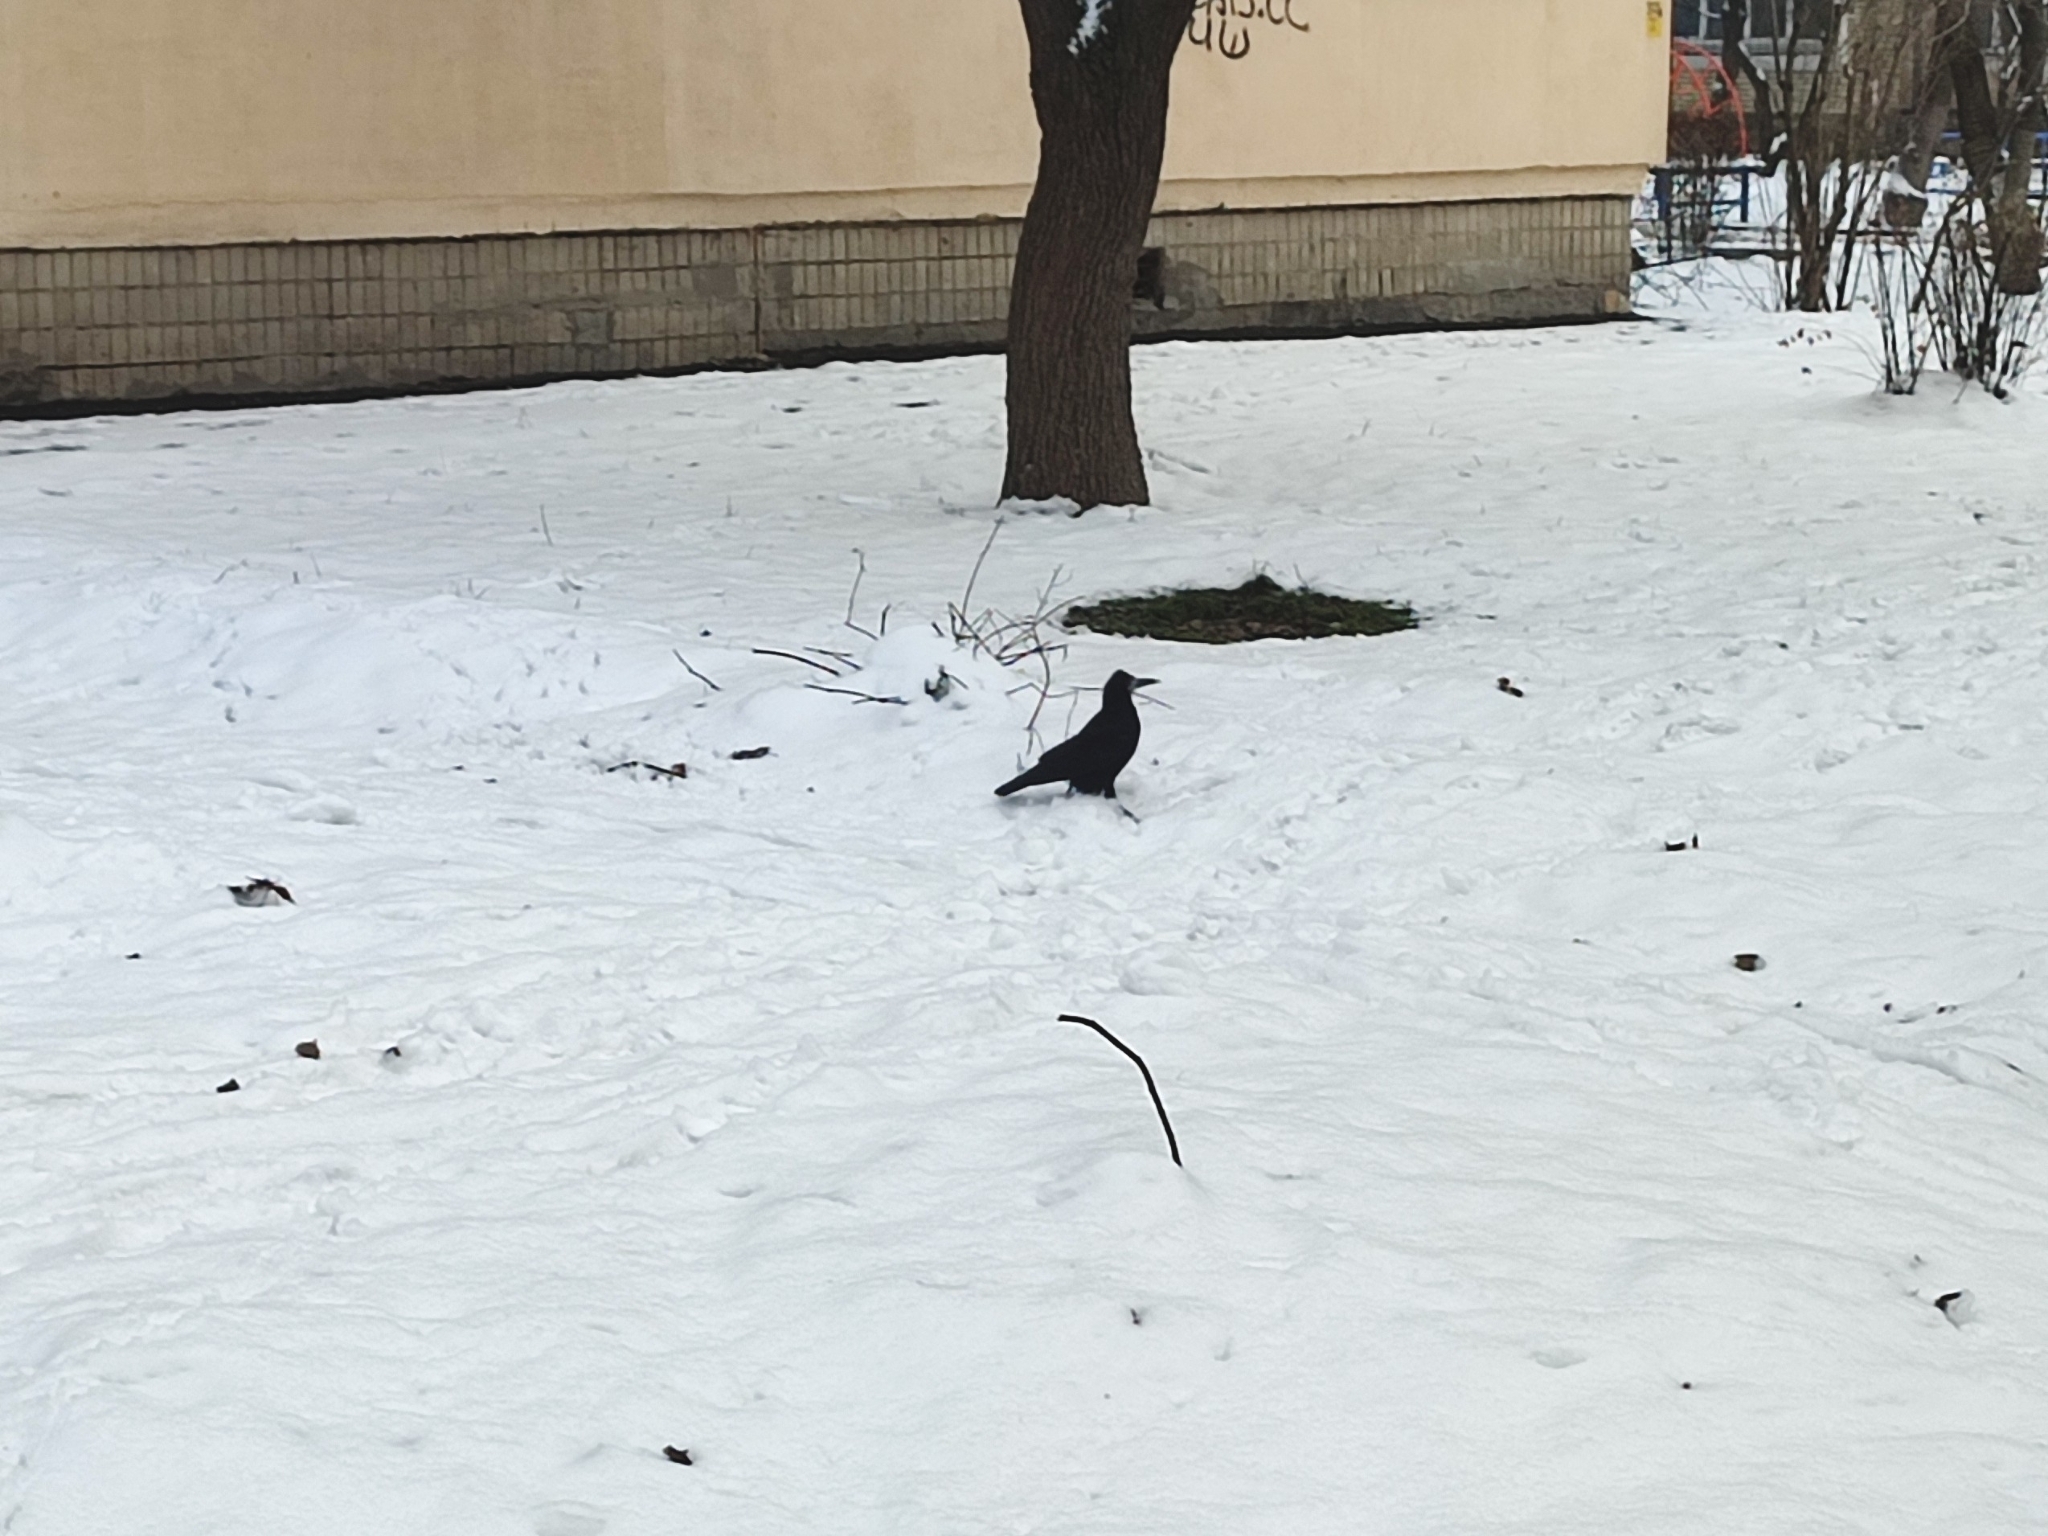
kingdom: Animalia
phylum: Chordata
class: Aves
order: Passeriformes
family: Corvidae
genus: Corvus
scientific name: Corvus frugilegus
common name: Rook
